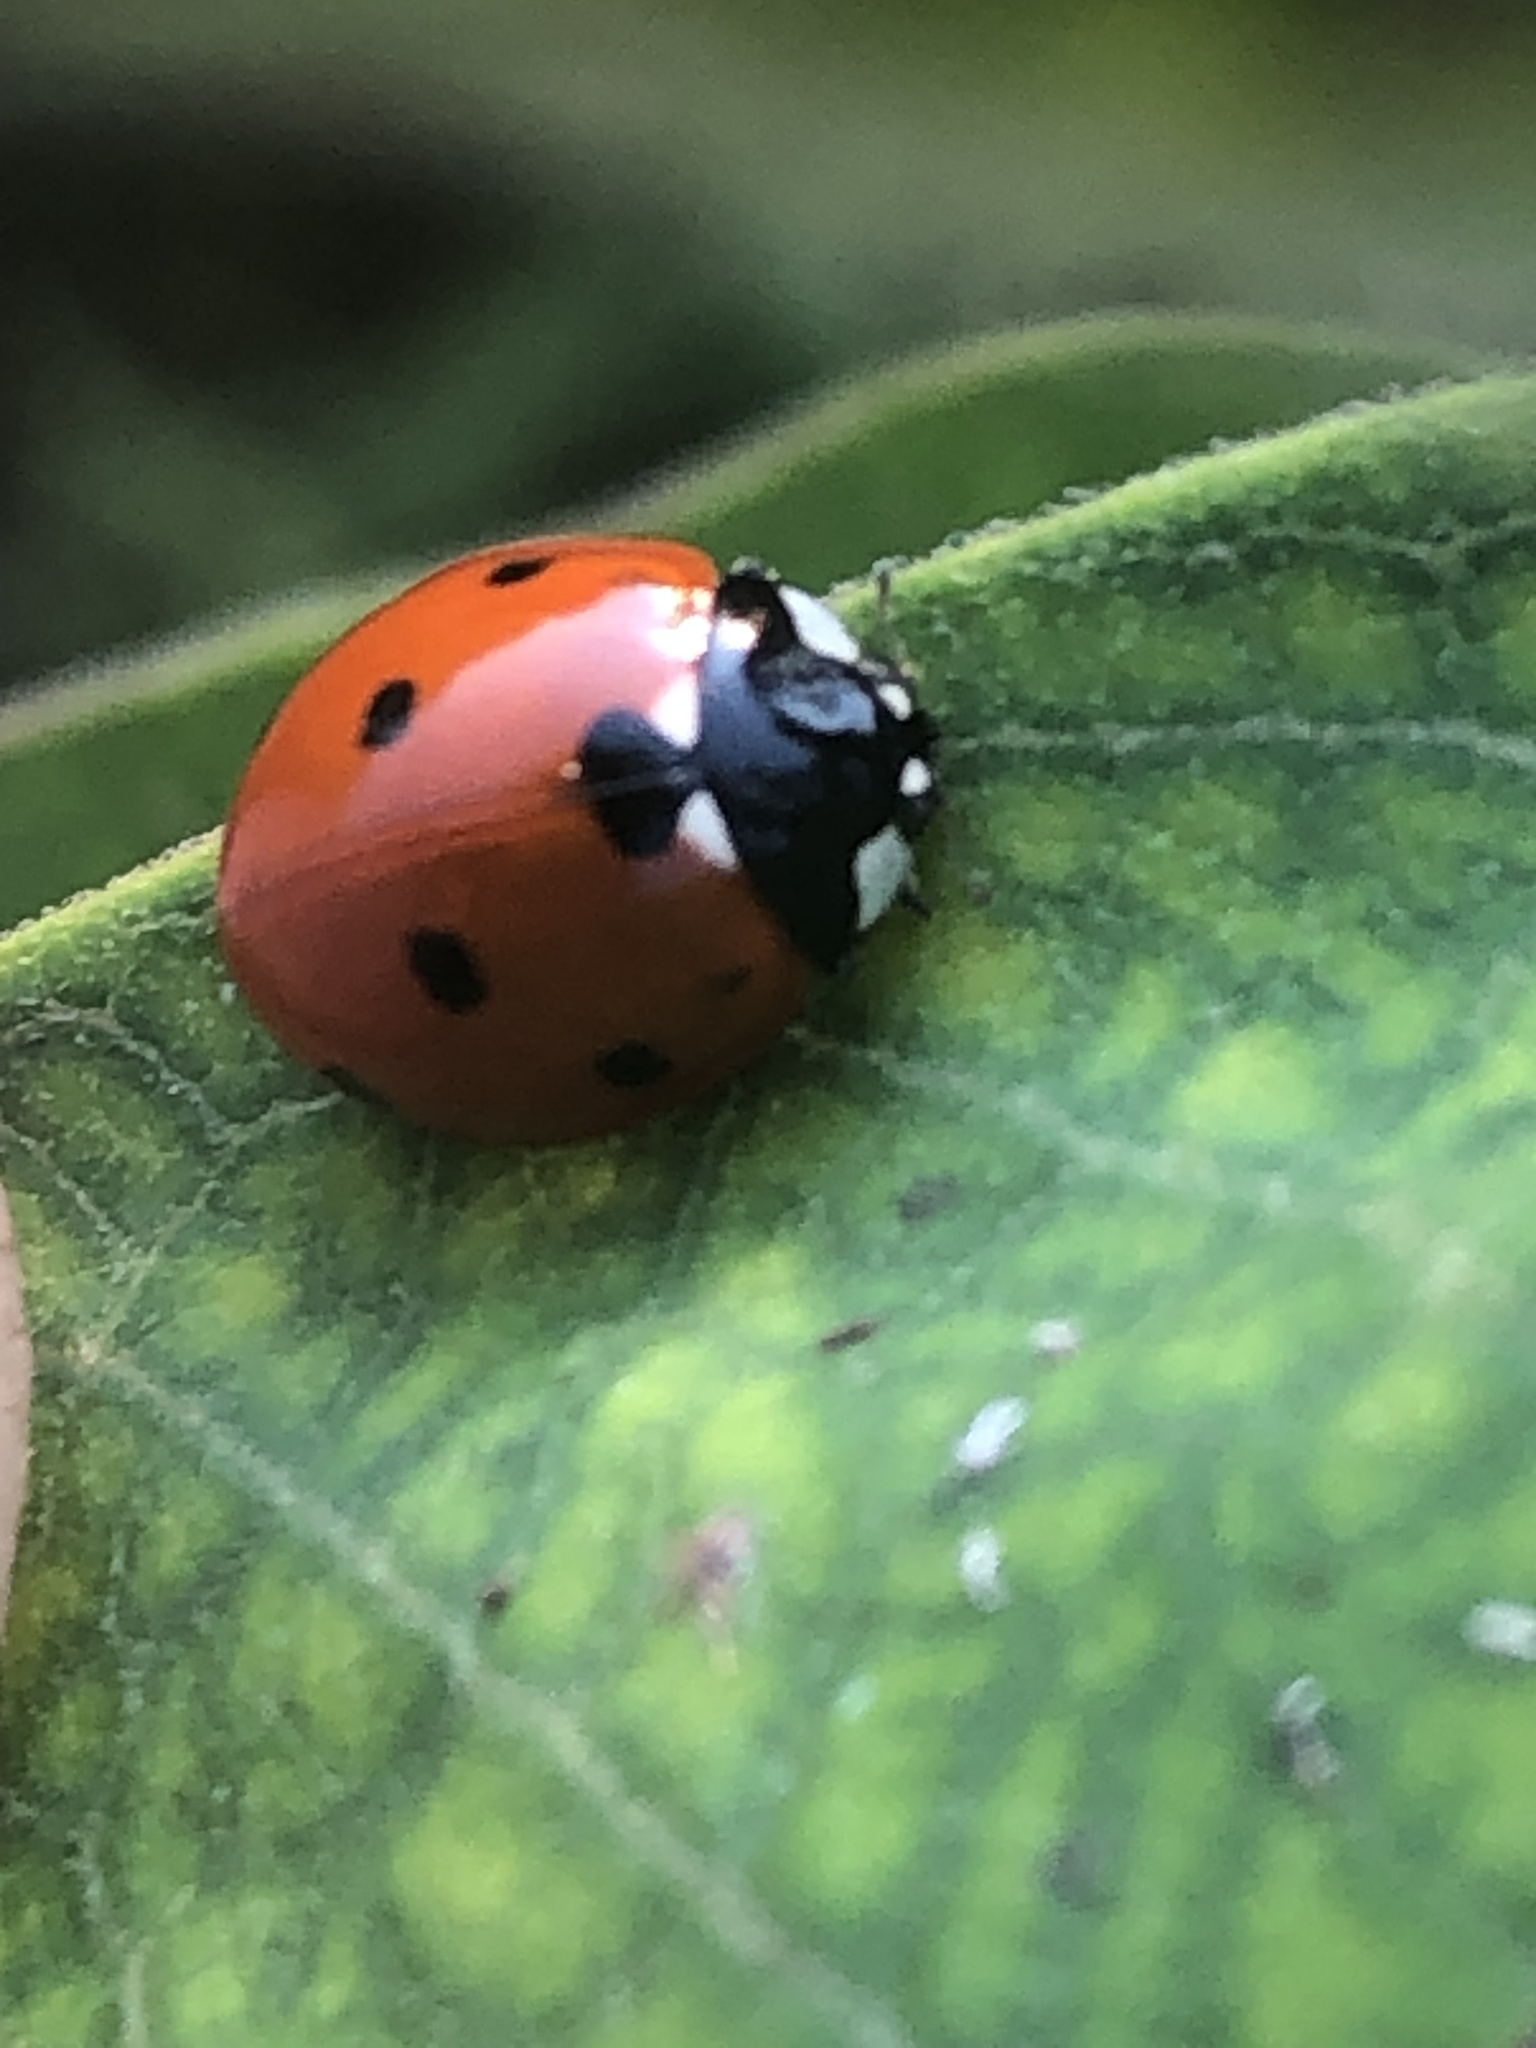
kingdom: Animalia
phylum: Arthropoda
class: Insecta
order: Coleoptera
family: Coccinellidae
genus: Coccinella
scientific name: Coccinella septempunctata
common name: Sevenspotted lady beetle
